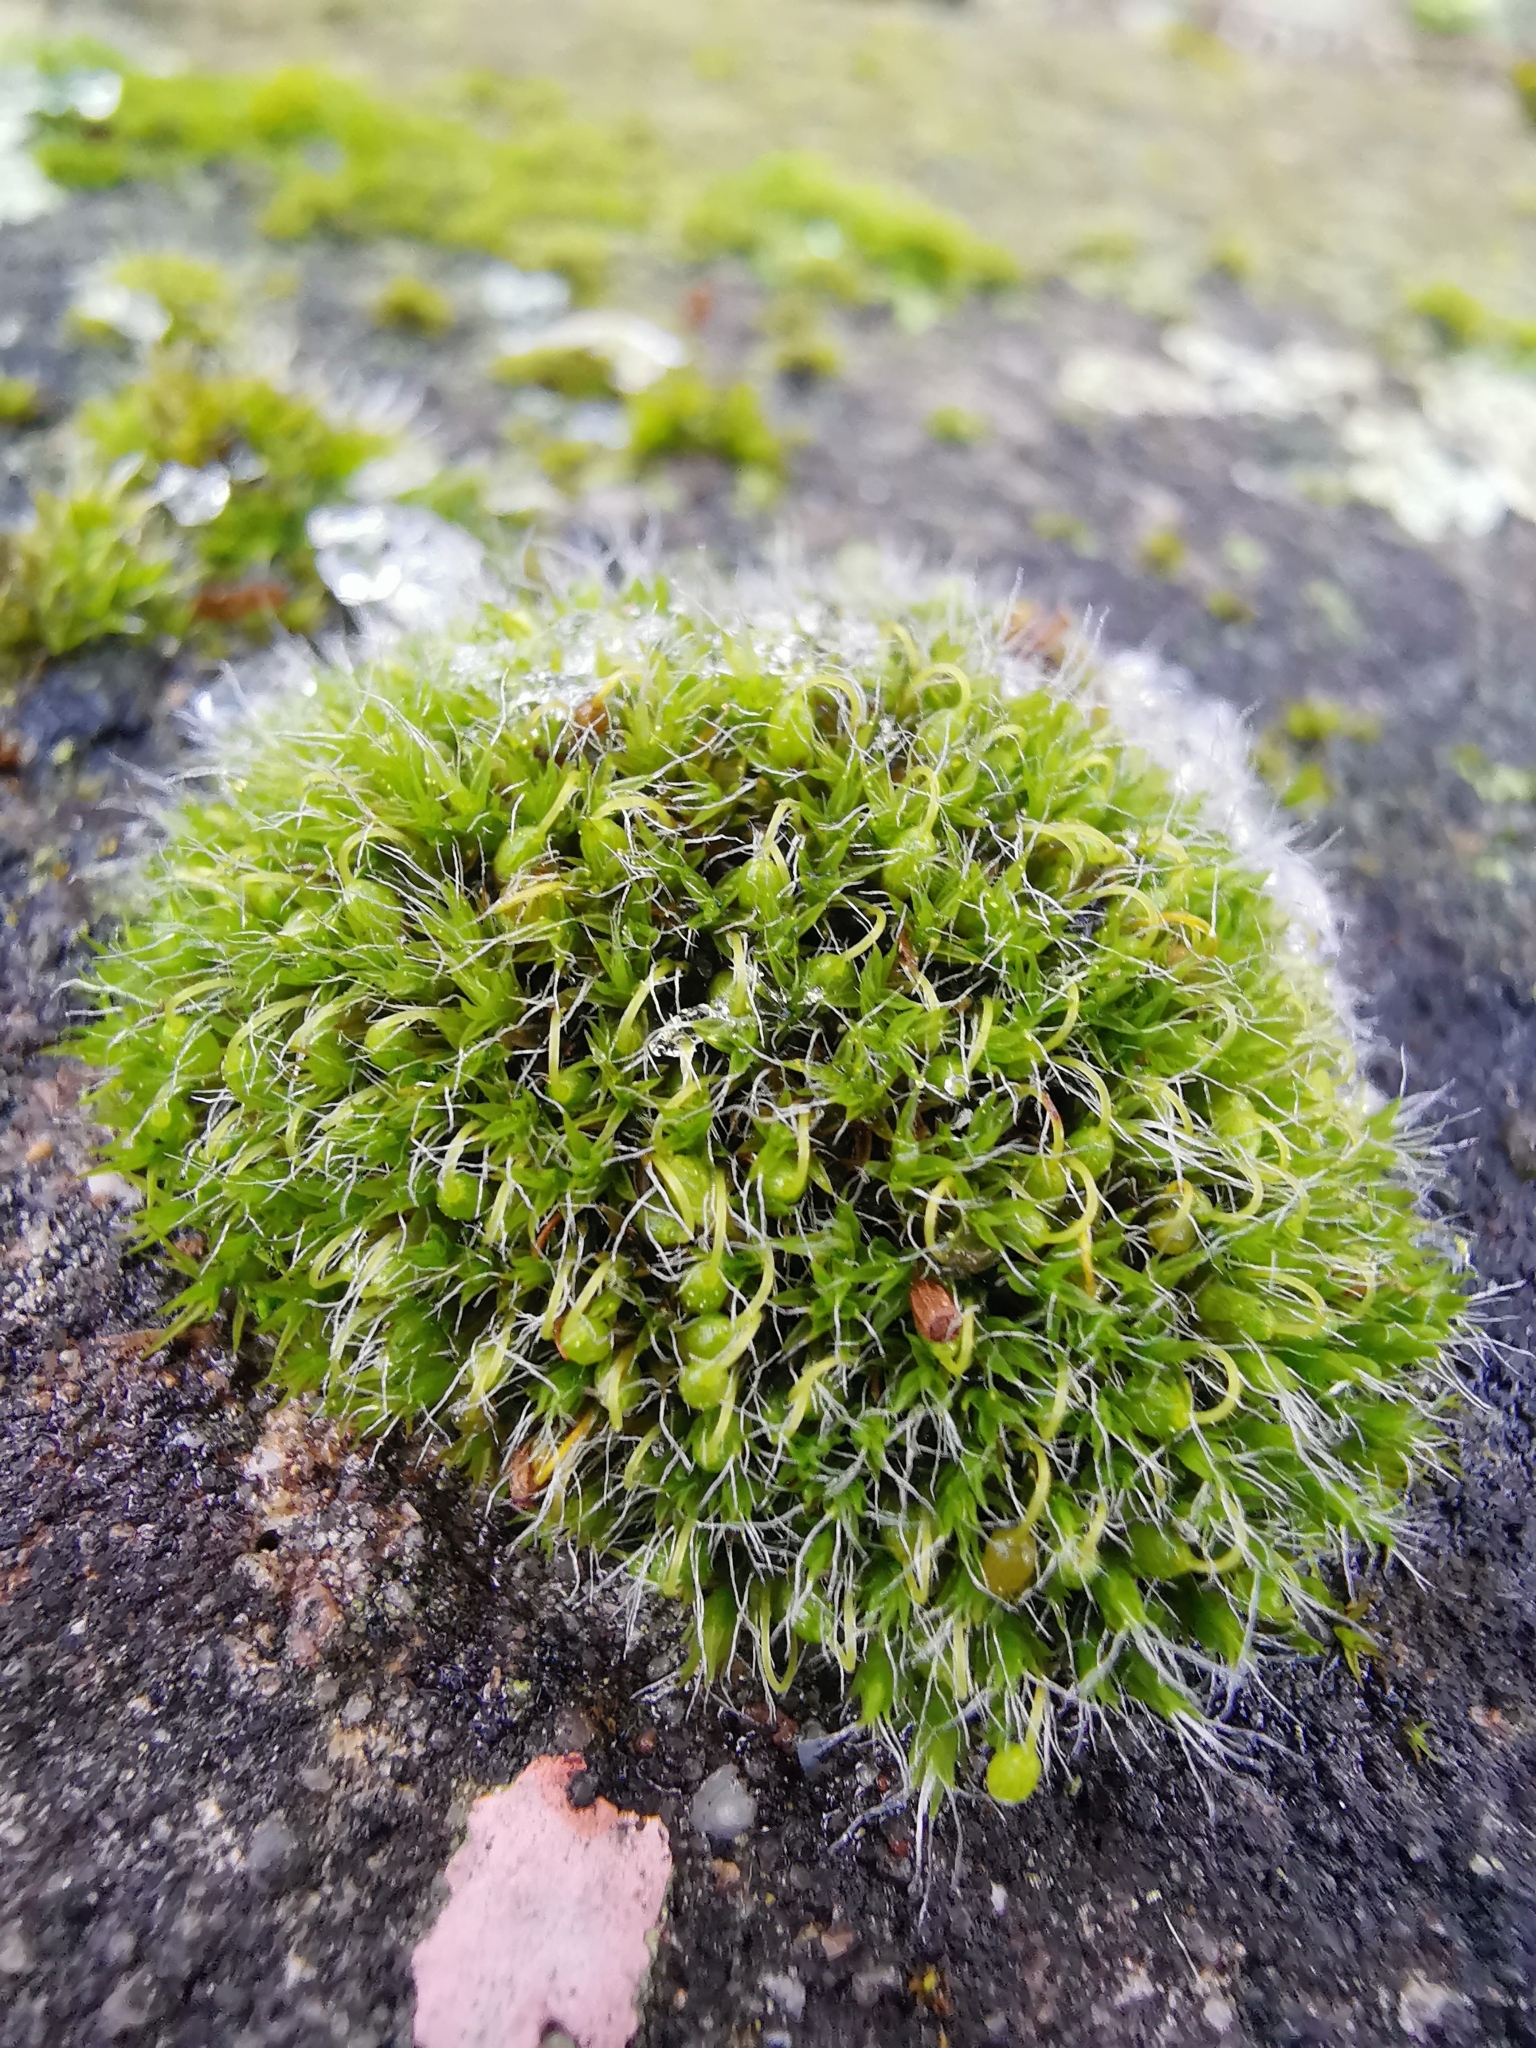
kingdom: Plantae
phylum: Bryophyta
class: Bryopsida
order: Grimmiales
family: Grimmiaceae
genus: Grimmia
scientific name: Grimmia pulvinata
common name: Grey-cushioned grimmia
